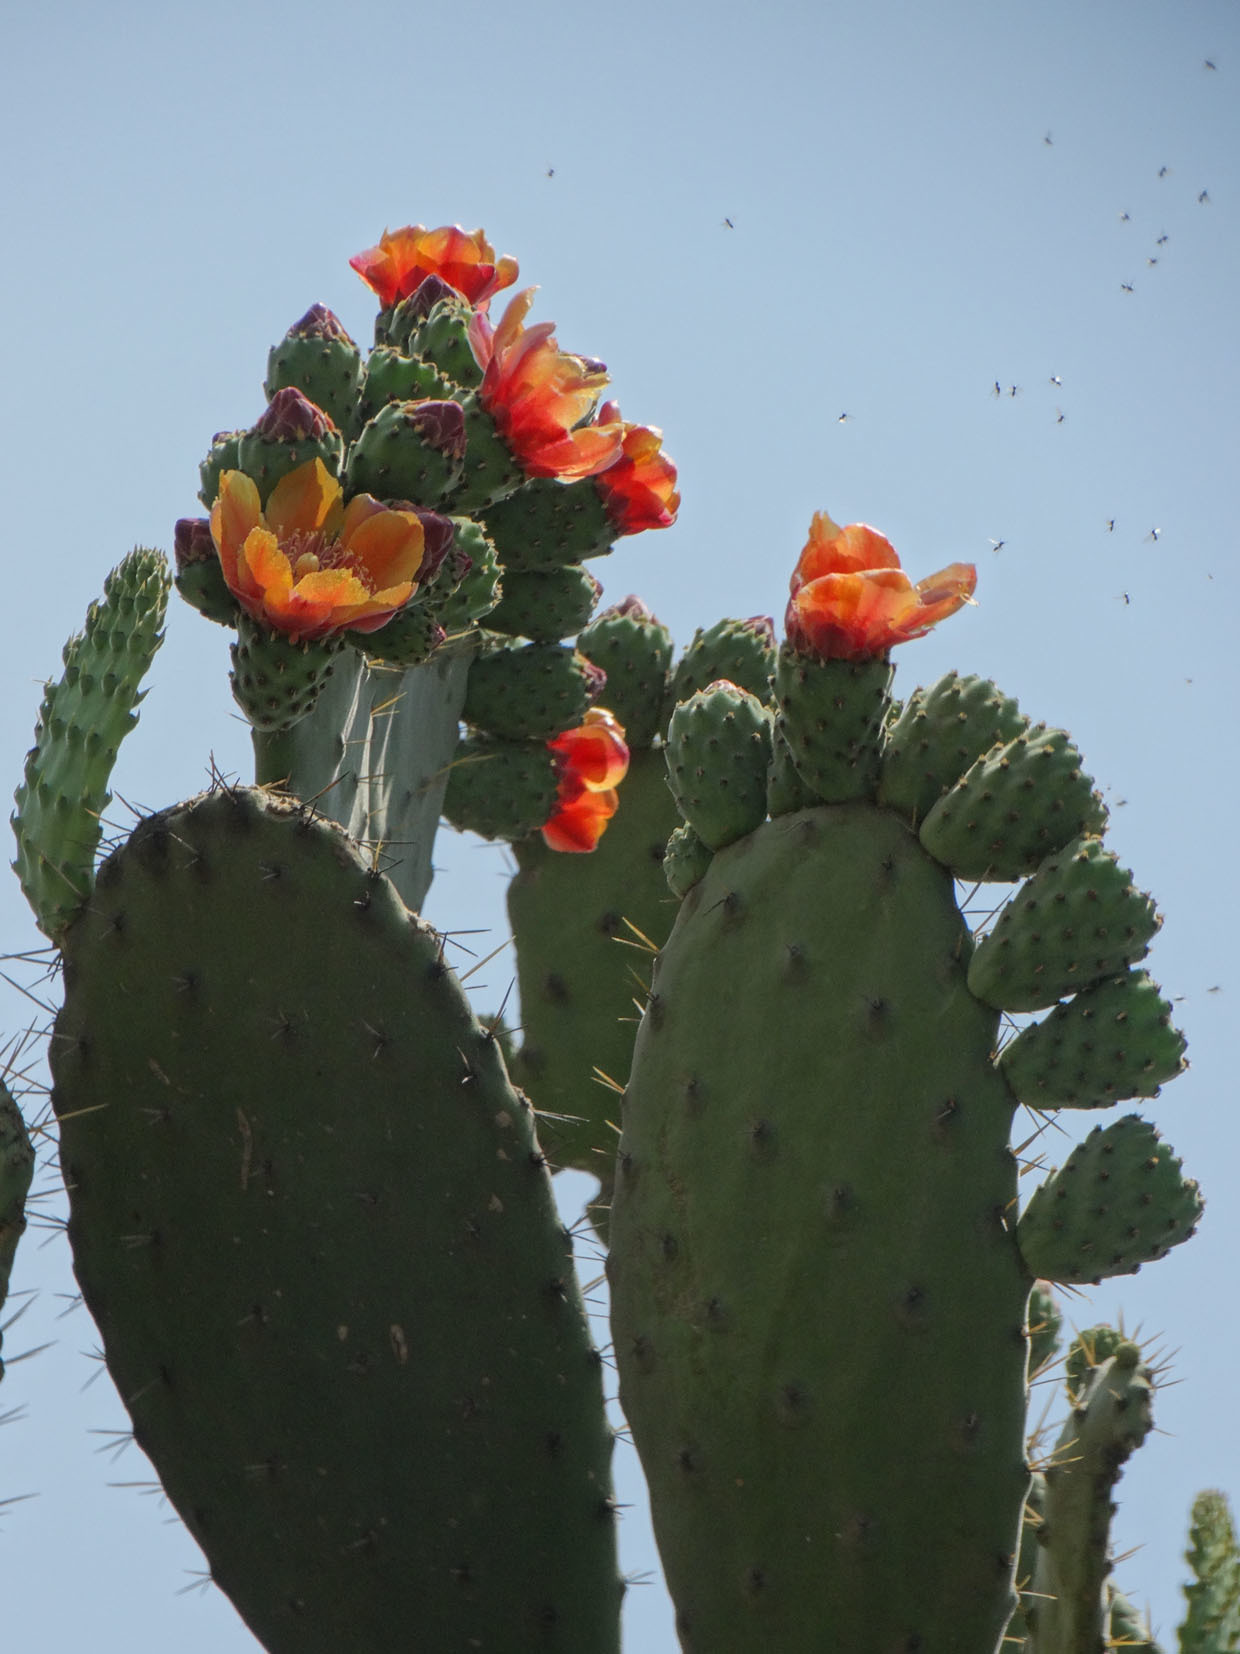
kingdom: Plantae
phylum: Tracheophyta
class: Magnoliopsida
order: Caryophyllales
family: Cactaceae
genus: Opuntia
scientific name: Opuntia tomentosa
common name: Woollyjoint pricklypear
